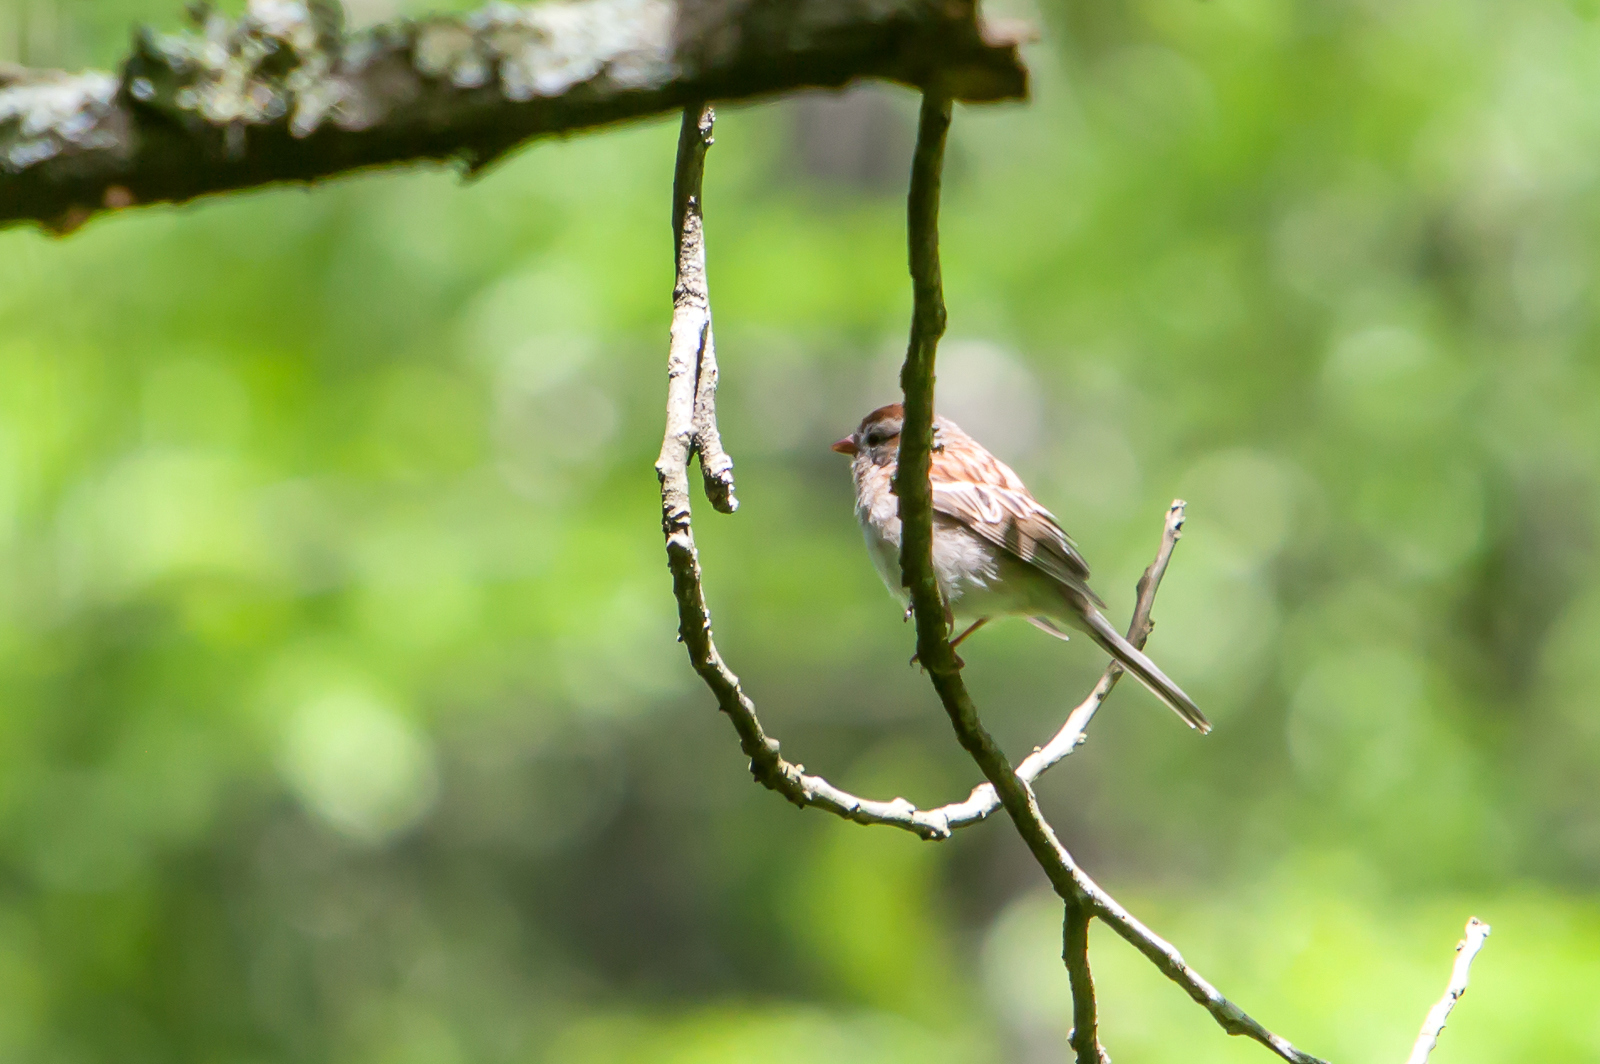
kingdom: Animalia
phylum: Chordata
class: Aves
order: Passeriformes
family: Passerellidae
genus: Spizella
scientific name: Spizella pusilla
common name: Field sparrow
